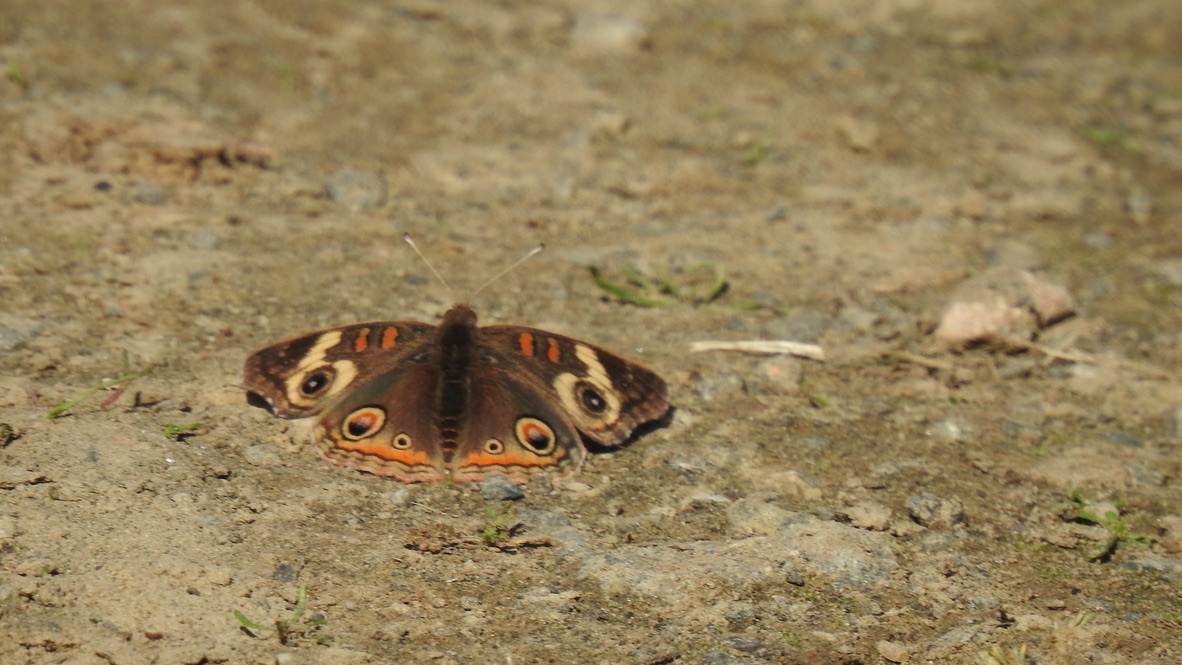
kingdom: Animalia
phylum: Arthropoda
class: Insecta
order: Lepidoptera
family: Nymphalidae
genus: Junonia
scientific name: Junonia grisea
